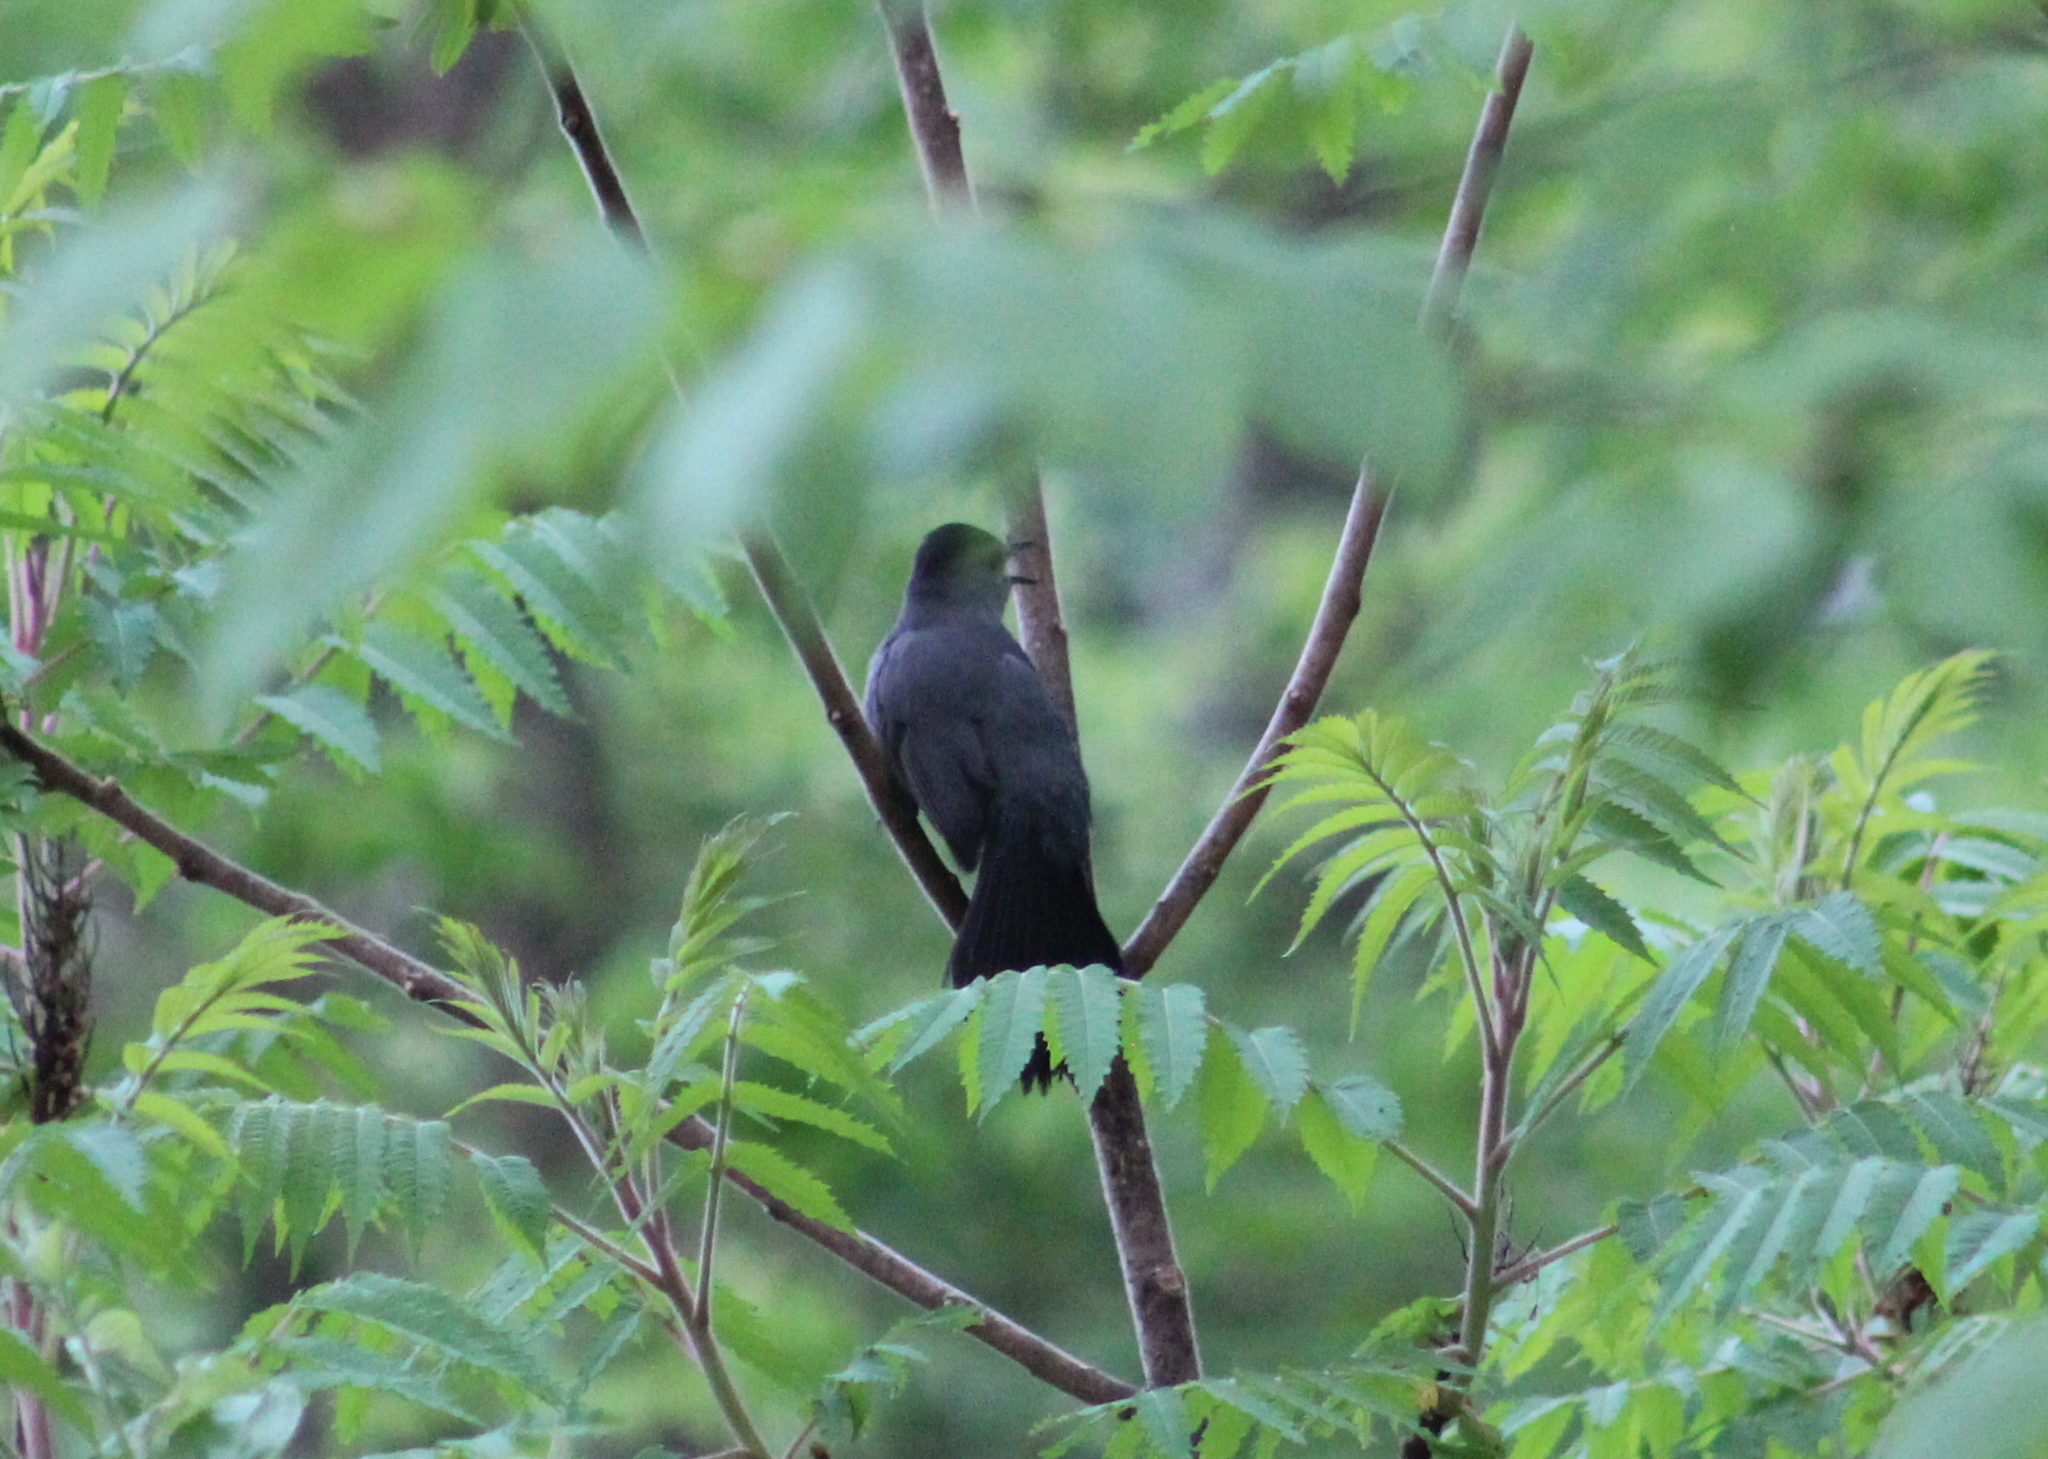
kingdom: Animalia
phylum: Chordata
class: Aves
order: Passeriformes
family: Mimidae
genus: Dumetella
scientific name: Dumetella carolinensis
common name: Gray catbird
